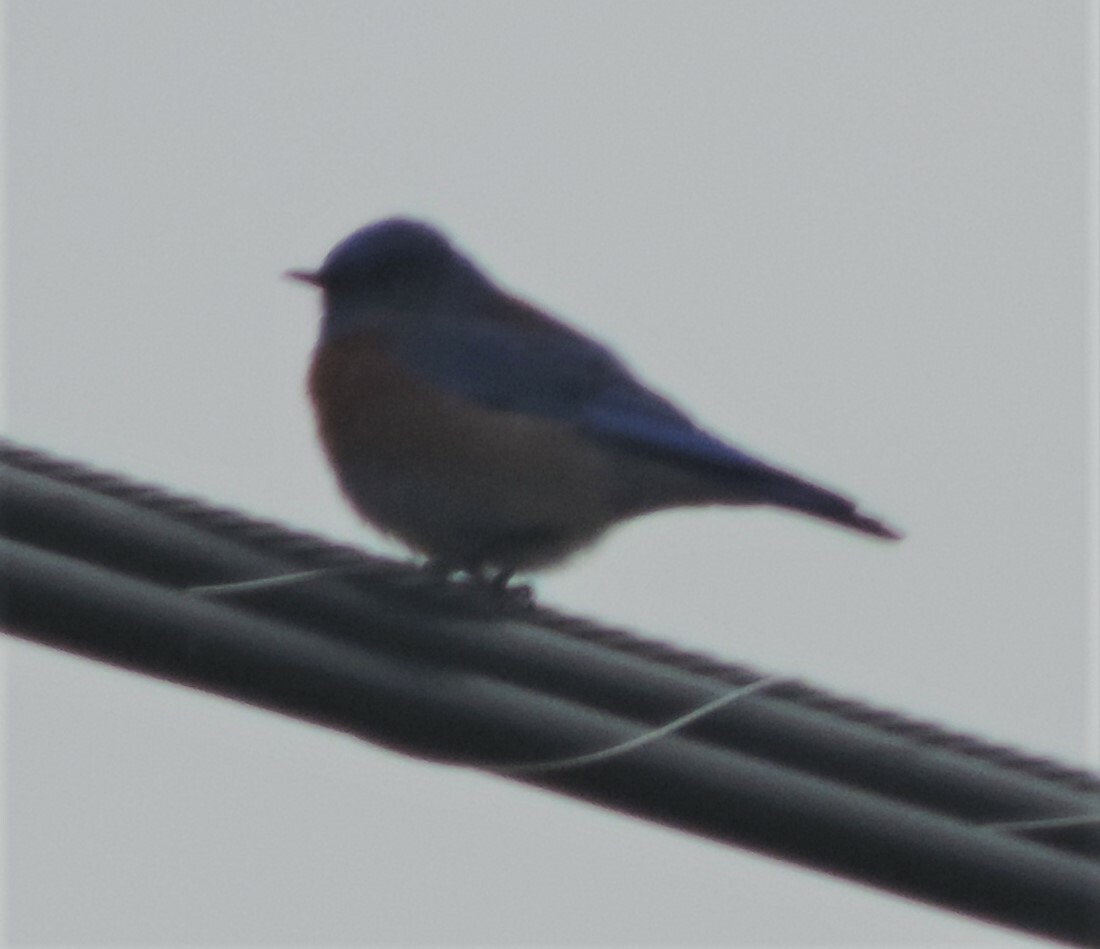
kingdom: Animalia
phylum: Chordata
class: Aves
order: Passeriformes
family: Turdidae
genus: Sialia
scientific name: Sialia mexicana
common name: Western bluebird
